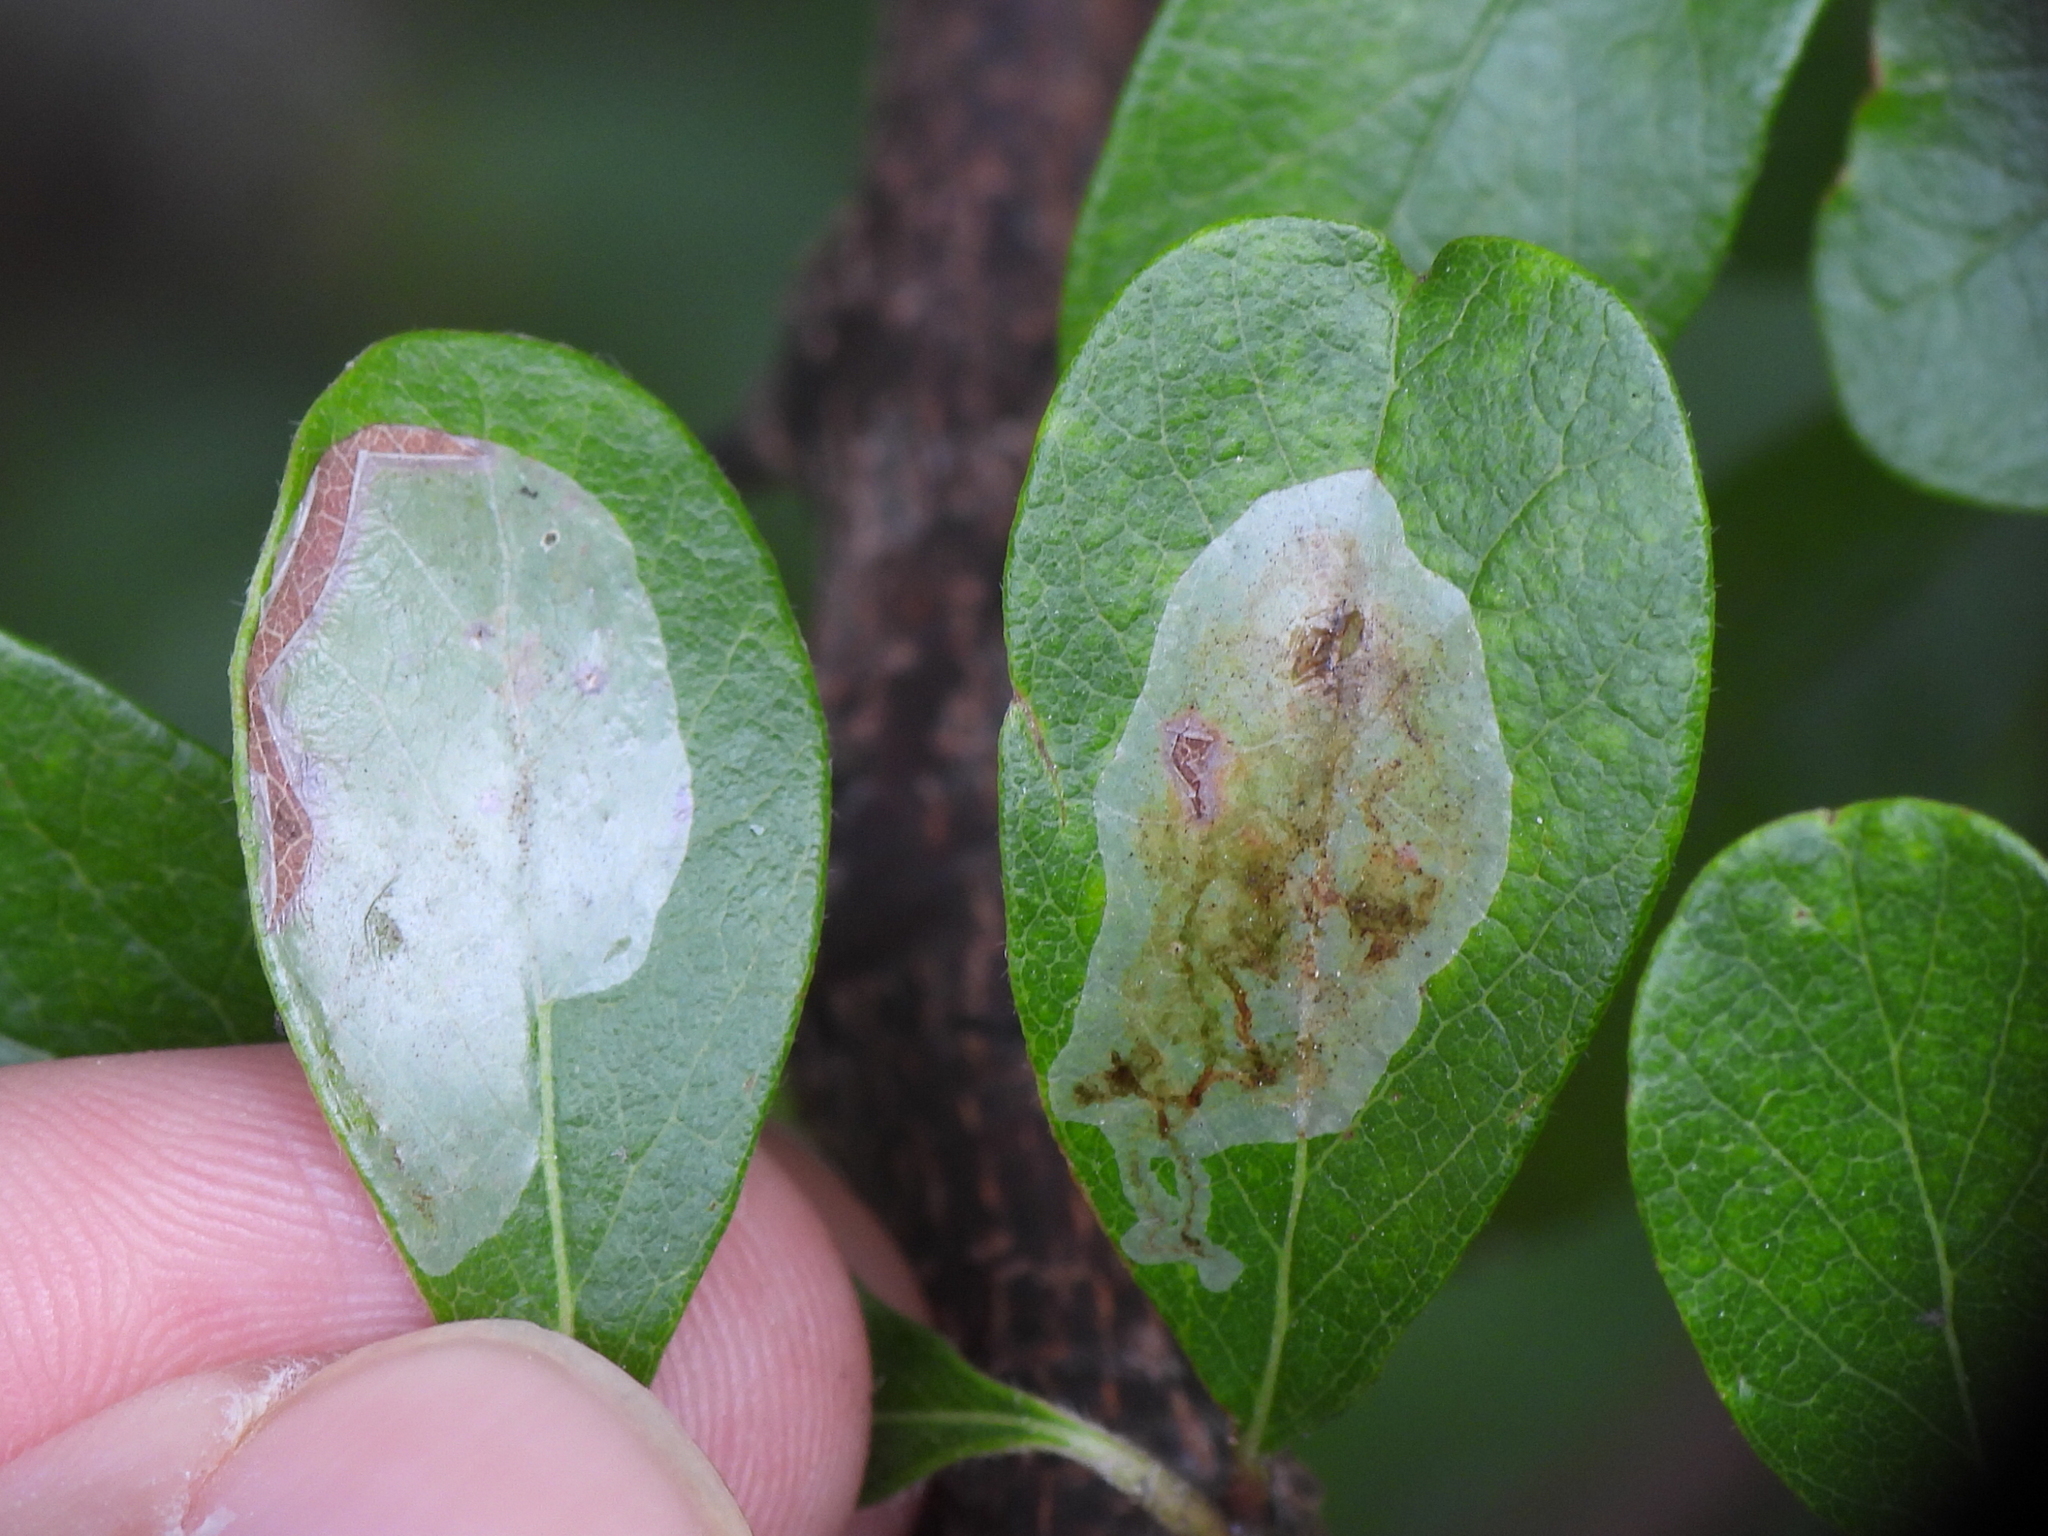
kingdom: Animalia
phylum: Arthropoda
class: Insecta
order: Lepidoptera
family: Gracillariidae
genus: Parectopa
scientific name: Parectopa bumeliella
